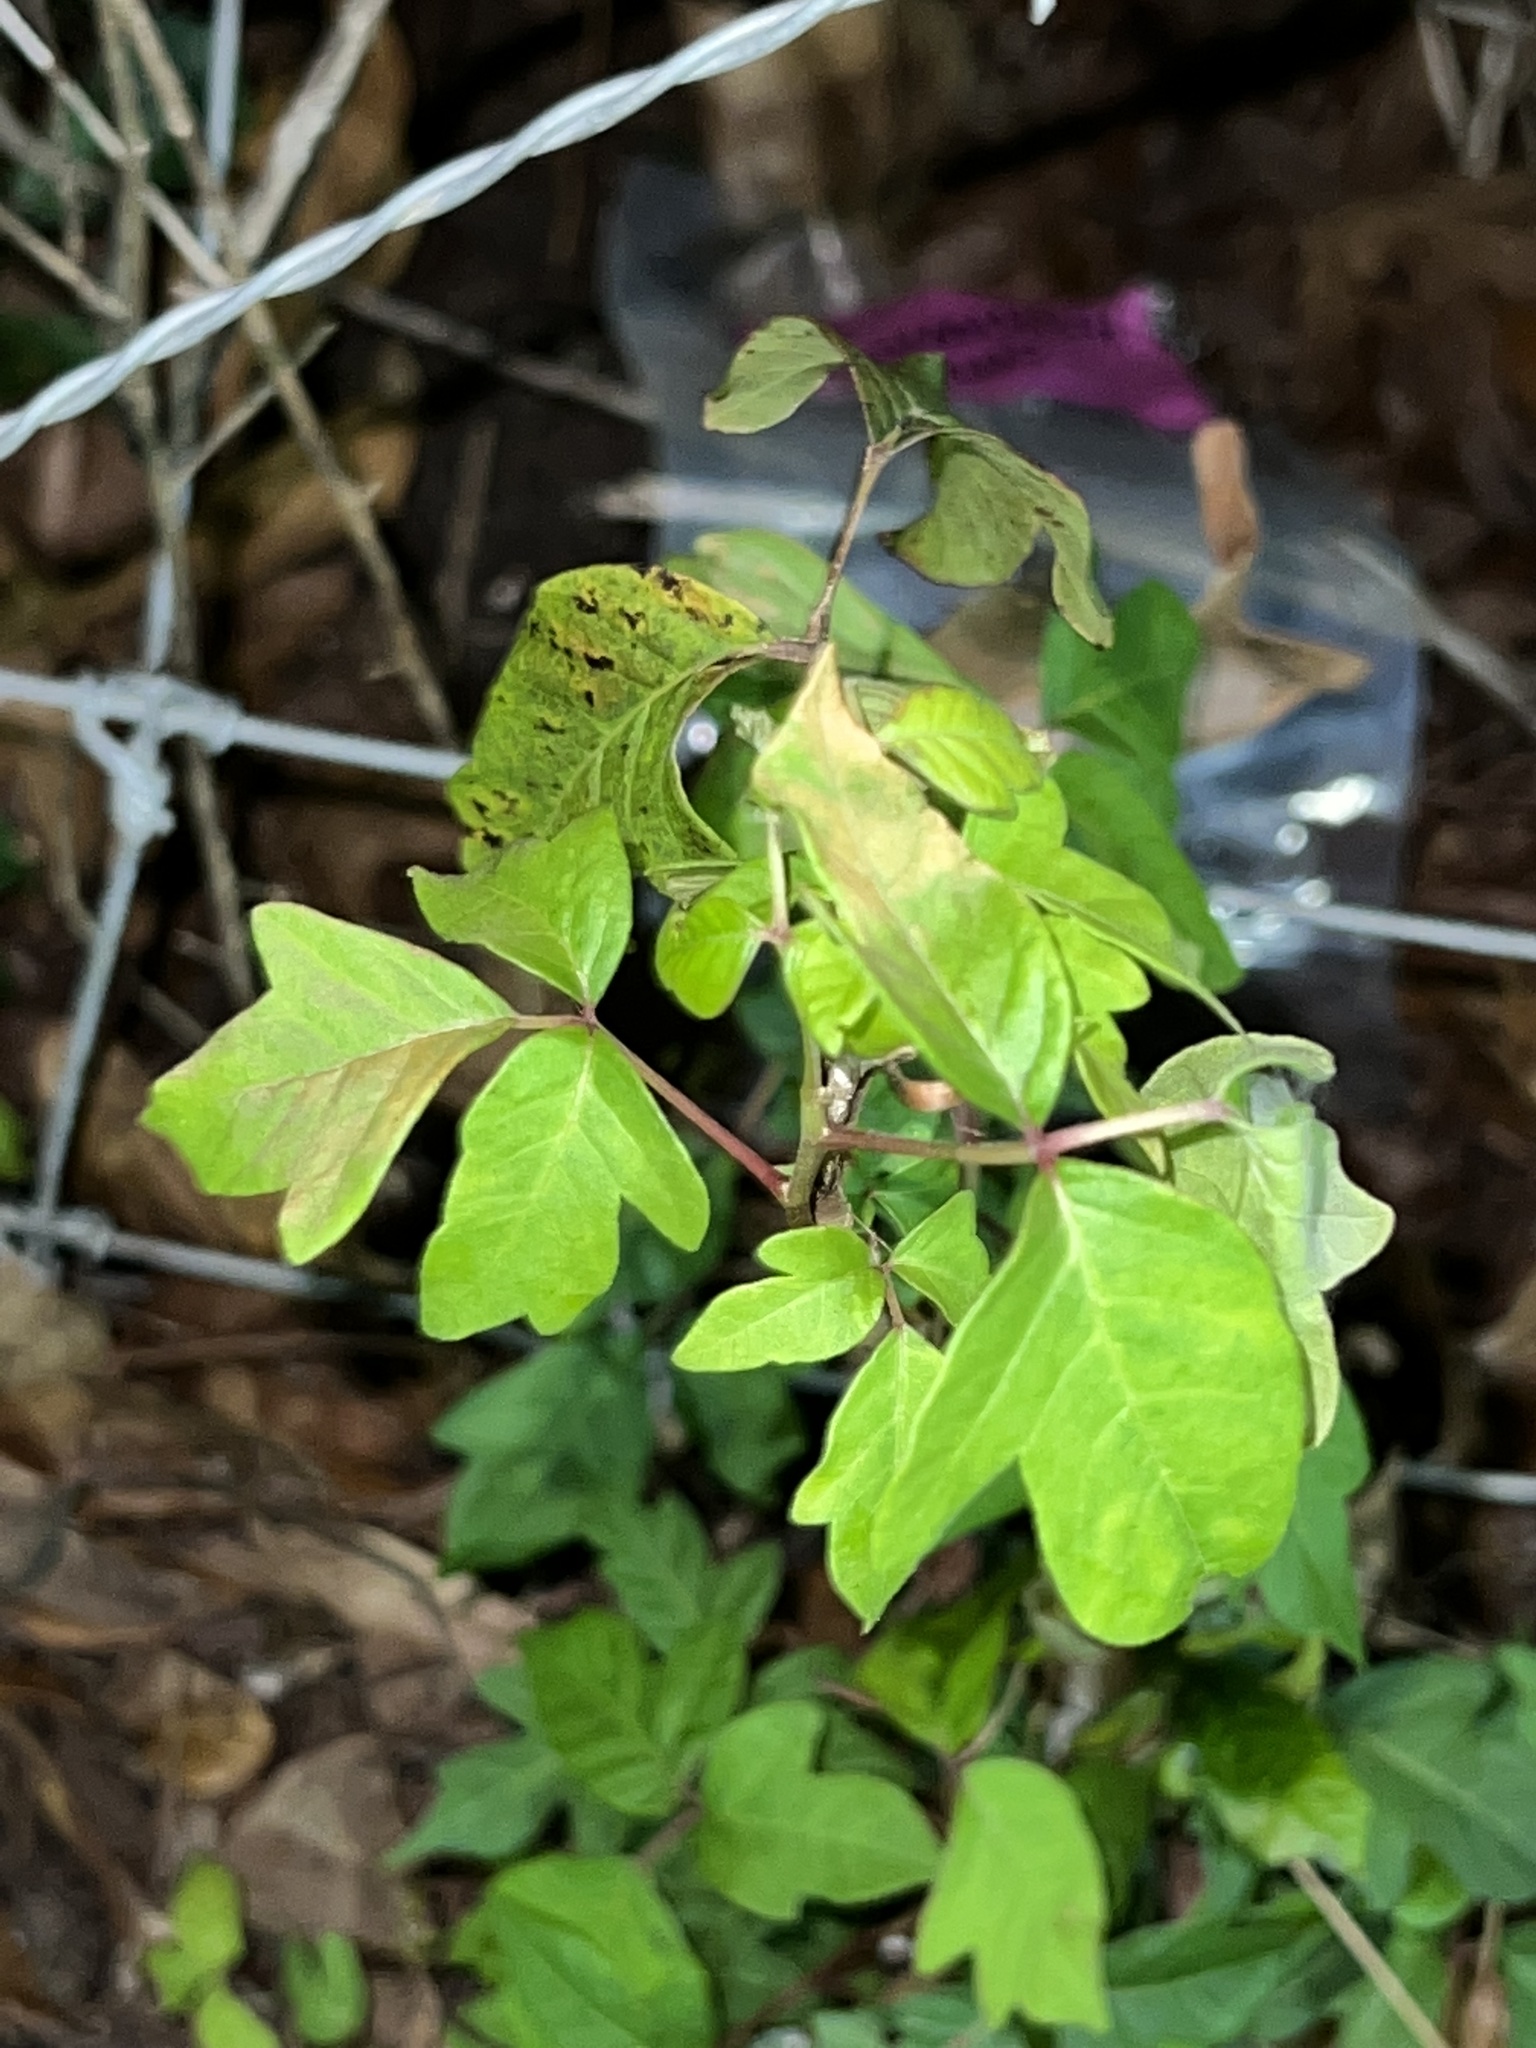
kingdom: Plantae
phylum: Tracheophyta
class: Magnoliopsida
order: Sapindales
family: Anacardiaceae
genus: Toxicodendron
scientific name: Toxicodendron radicans
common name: Poison ivy
